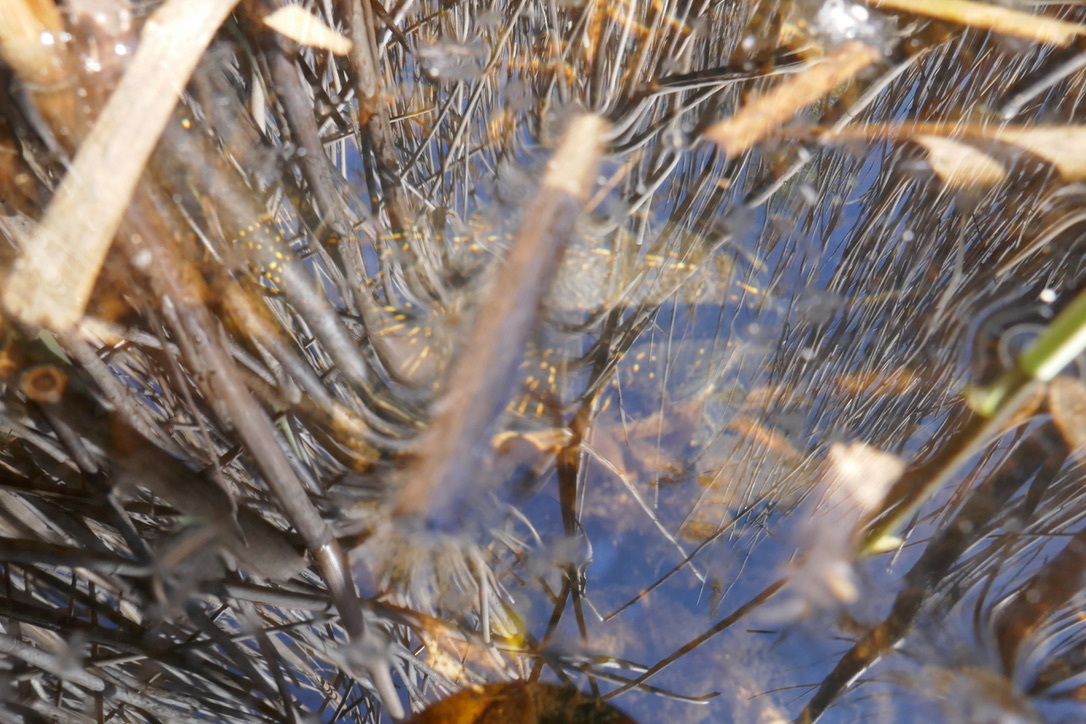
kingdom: Animalia
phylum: Chordata
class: Testudines
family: Emydidae
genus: Emys
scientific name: Emys orbicularis
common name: European pond turtle
